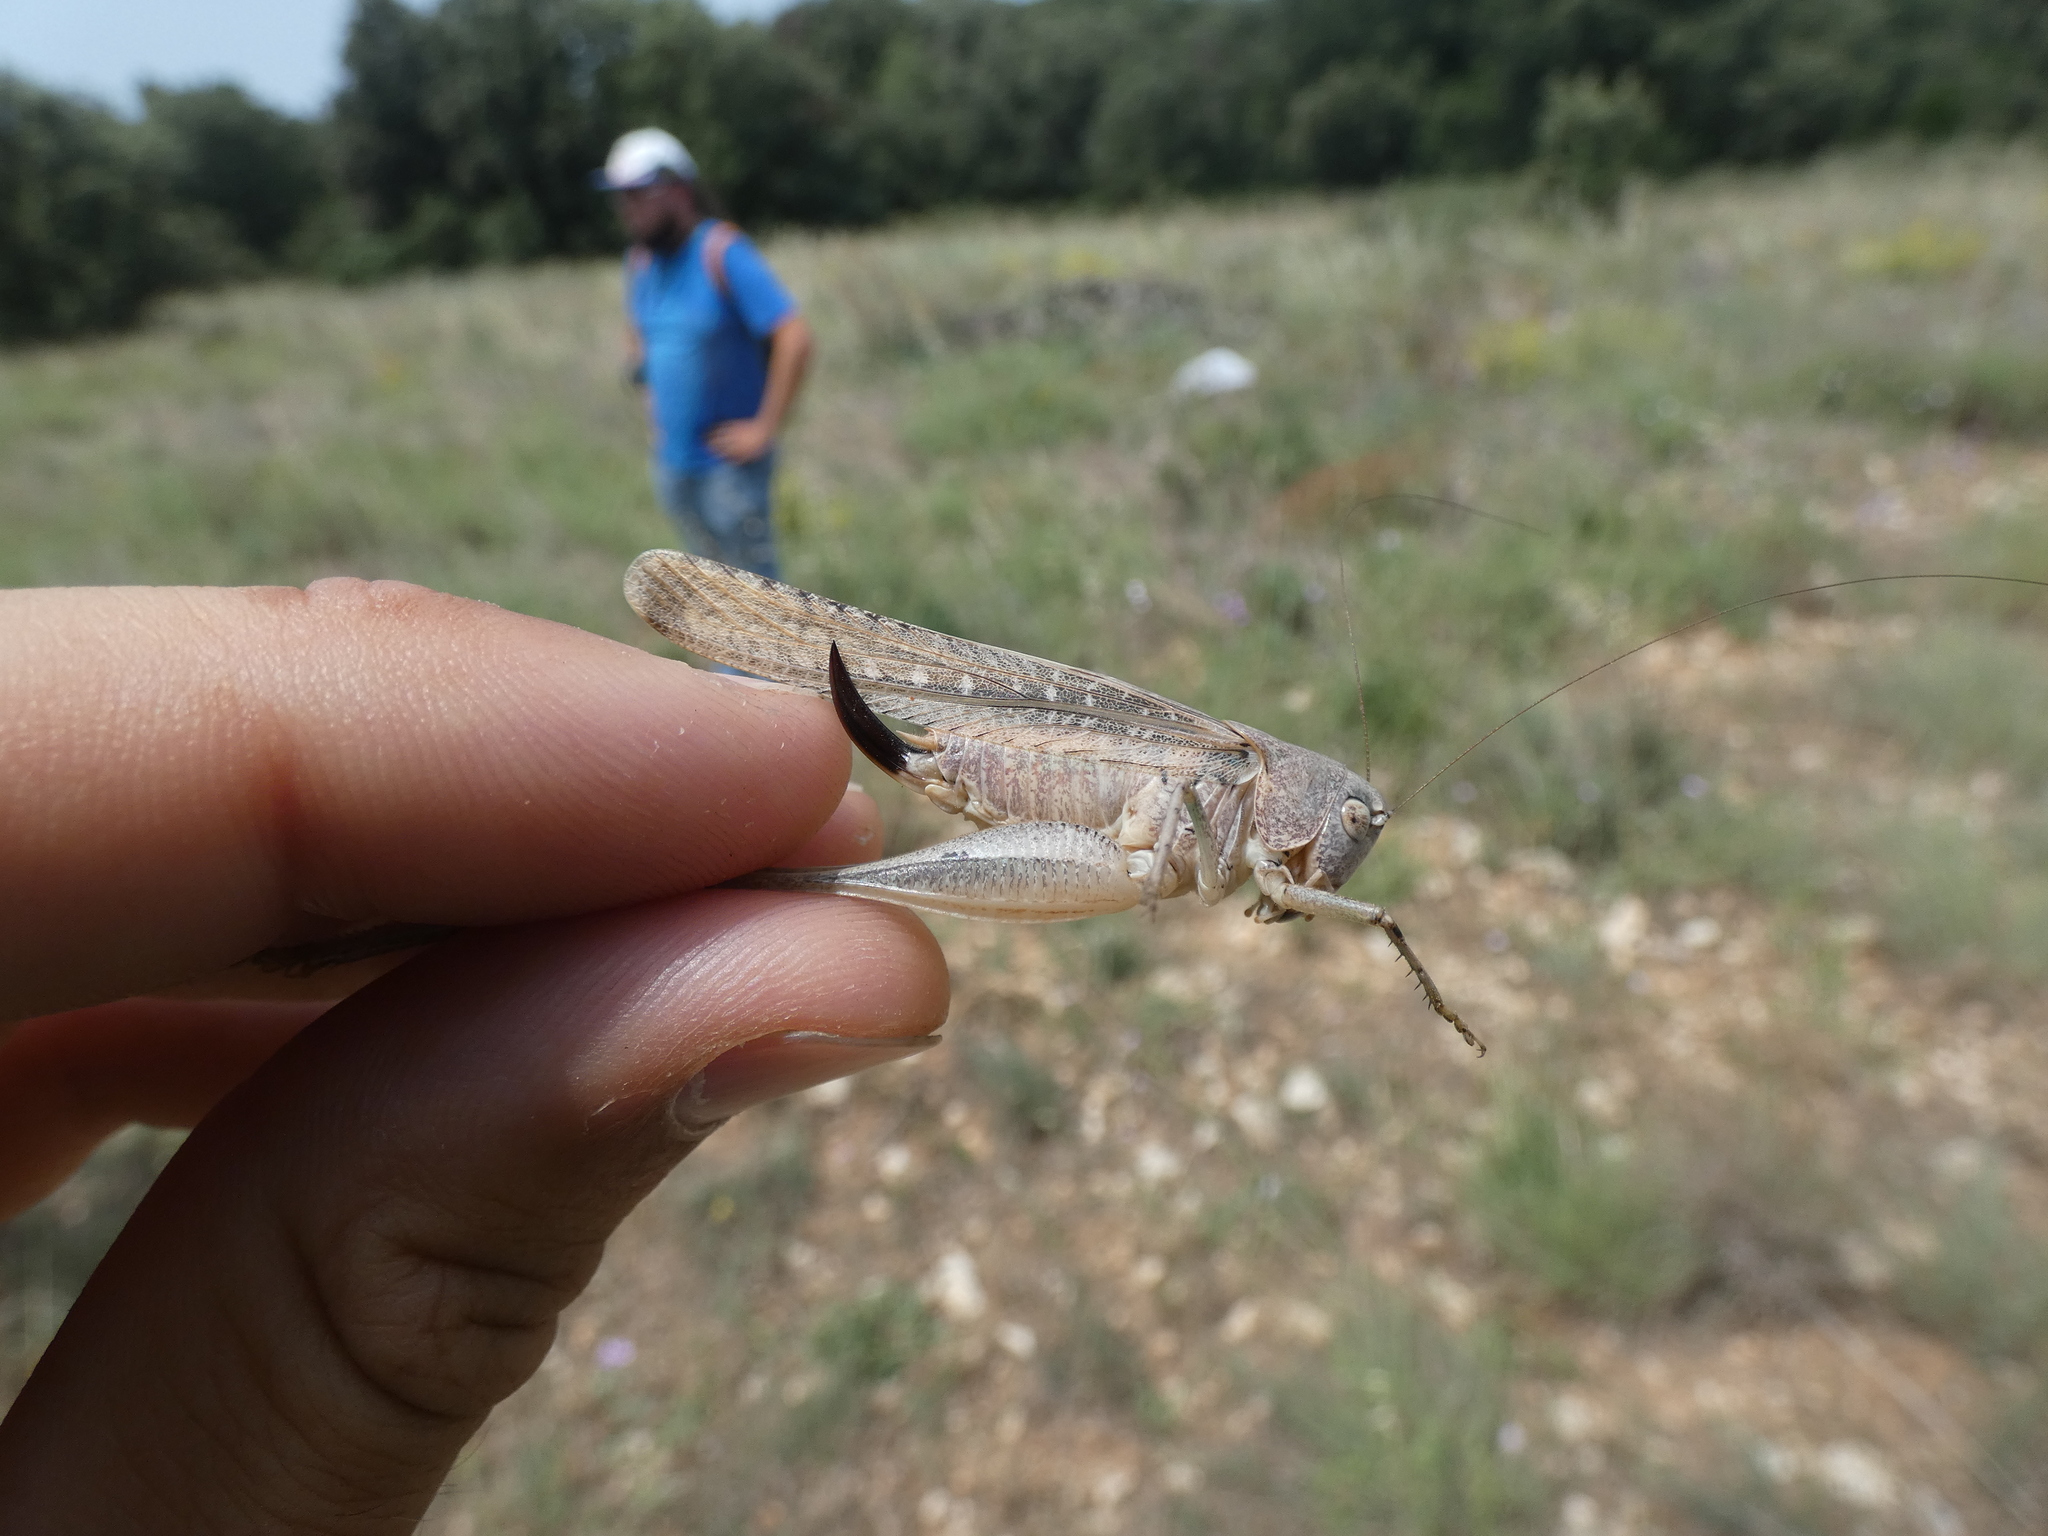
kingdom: Animalia
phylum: Arthropoda
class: Insecta
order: Orthoptera
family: Tettigoniidae
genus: Platycleis
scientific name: Platycleis intermedia
